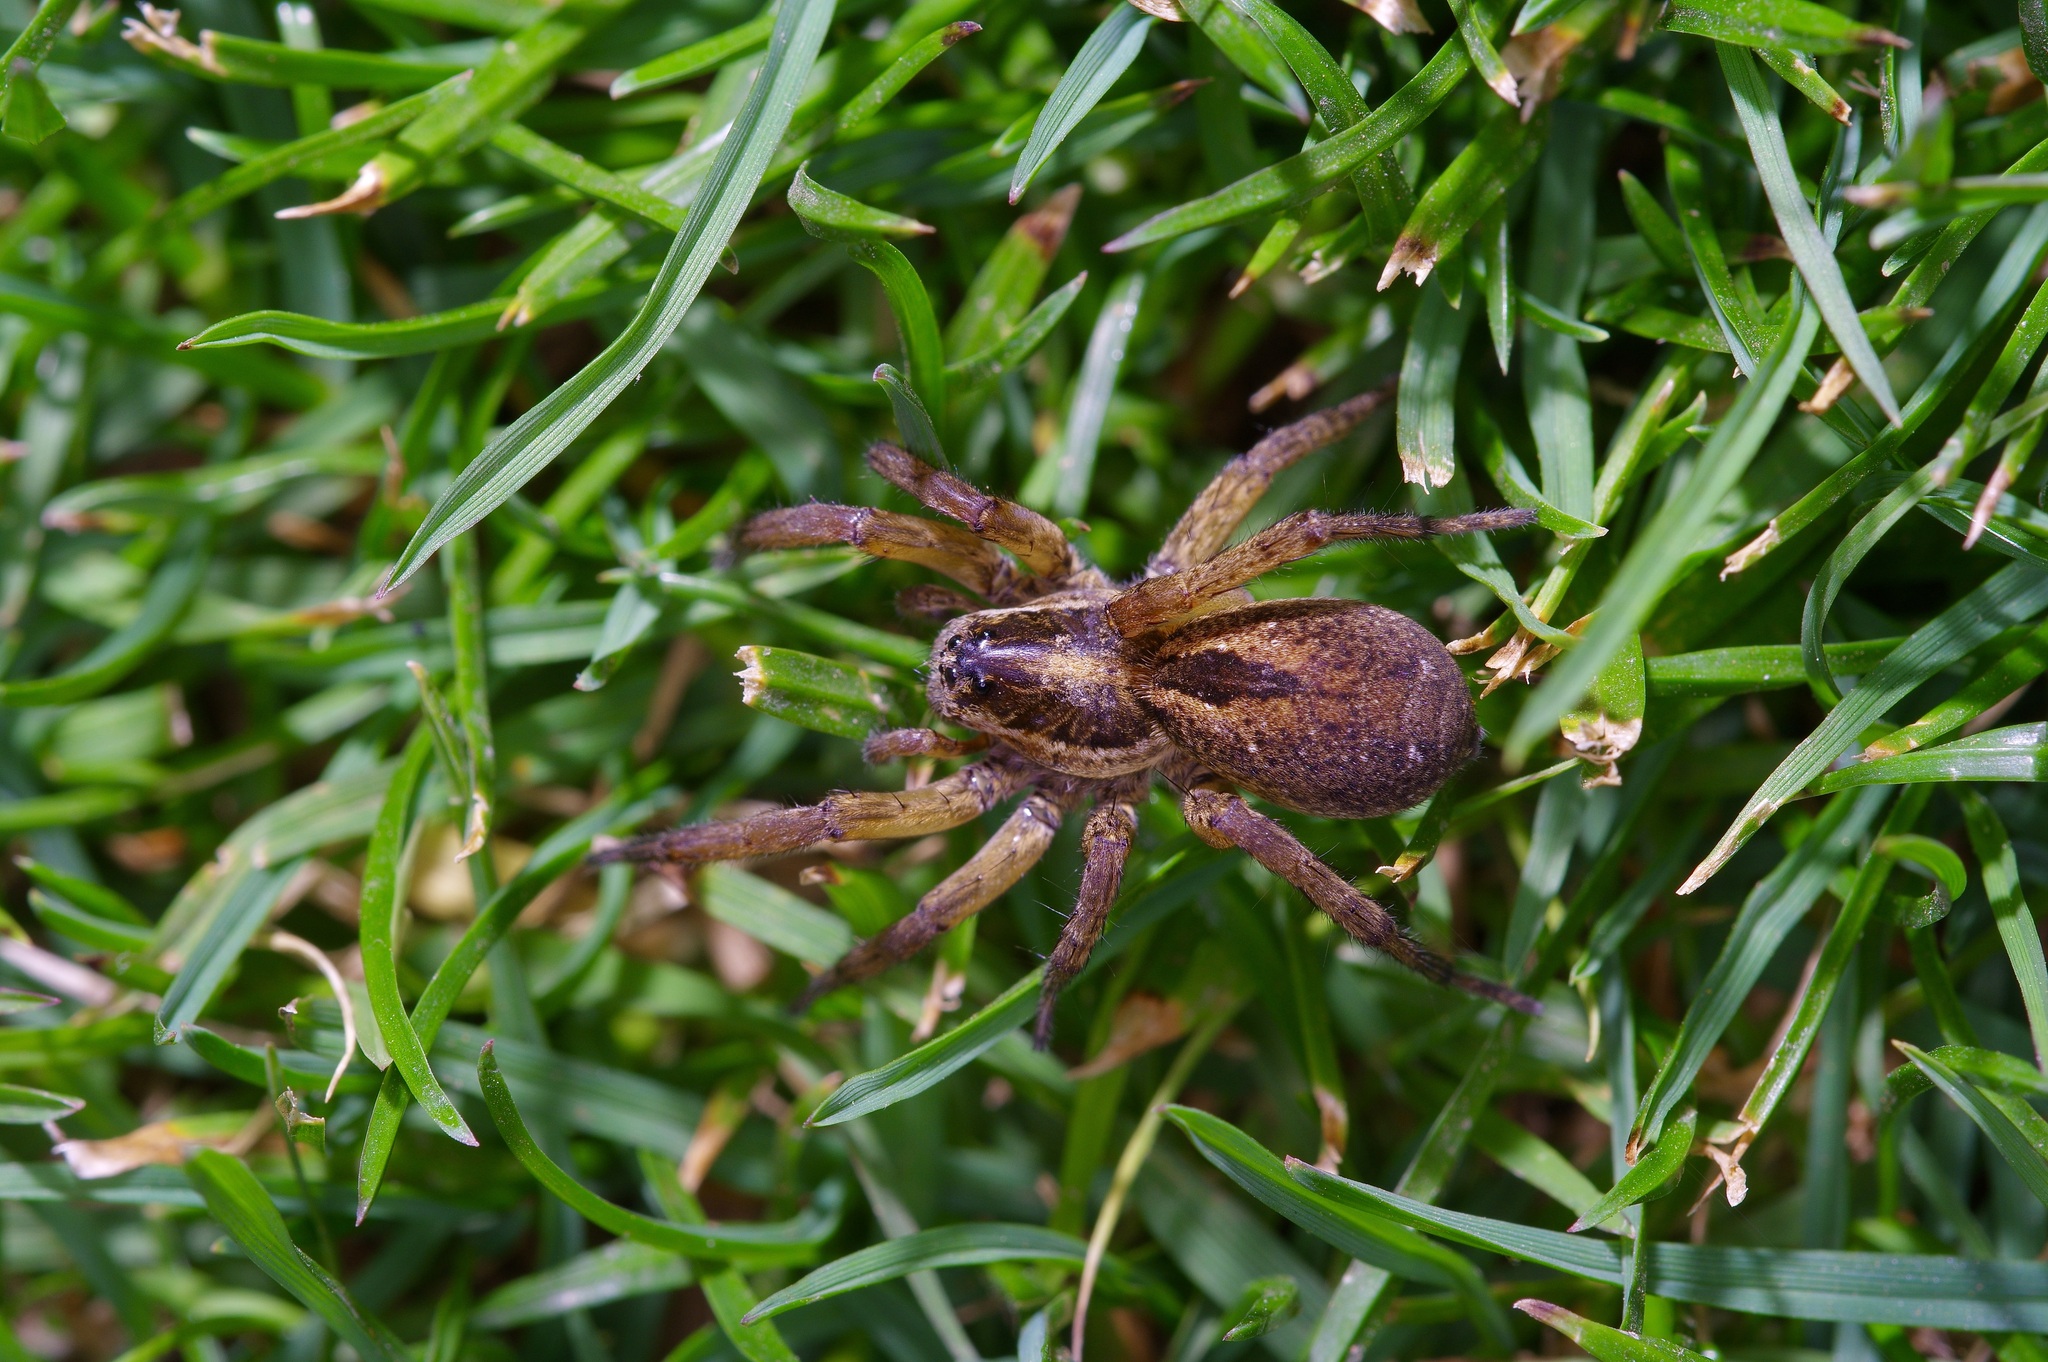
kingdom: Animalia
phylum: Arthropoda
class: Arachnida
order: Araneae
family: Lycosidae
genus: Tigrosa
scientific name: Tigrosa annexa
